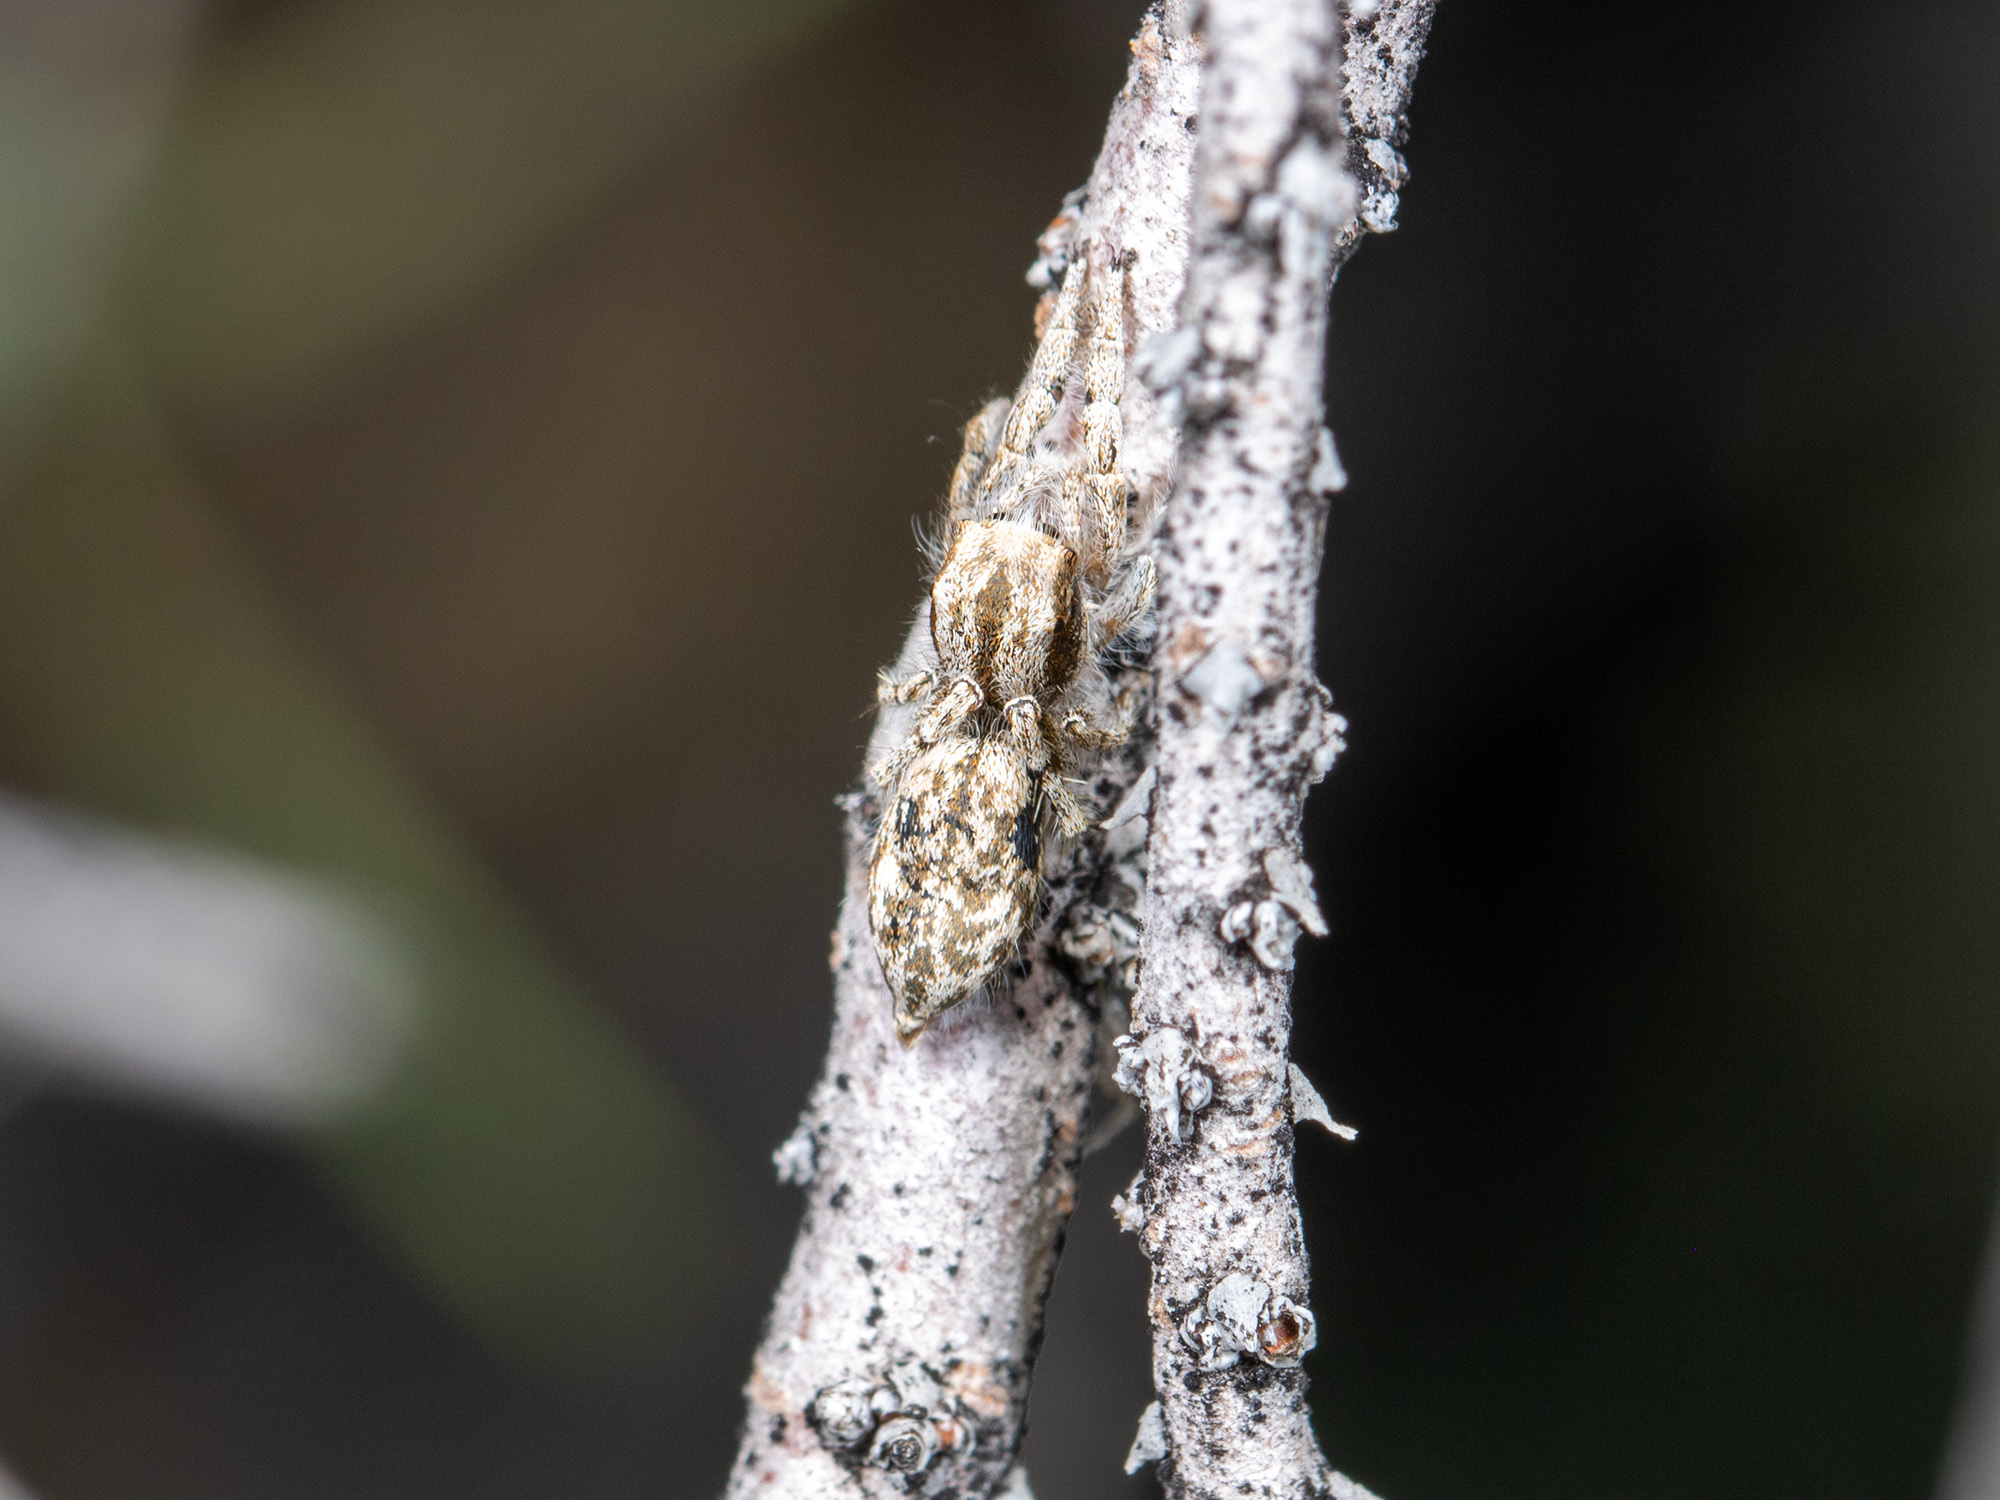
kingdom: Animalia
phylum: Arthropoda
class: Arachnida
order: Araneae
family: Salticidae
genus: Marusyllus
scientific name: Marusyllus aralicus
